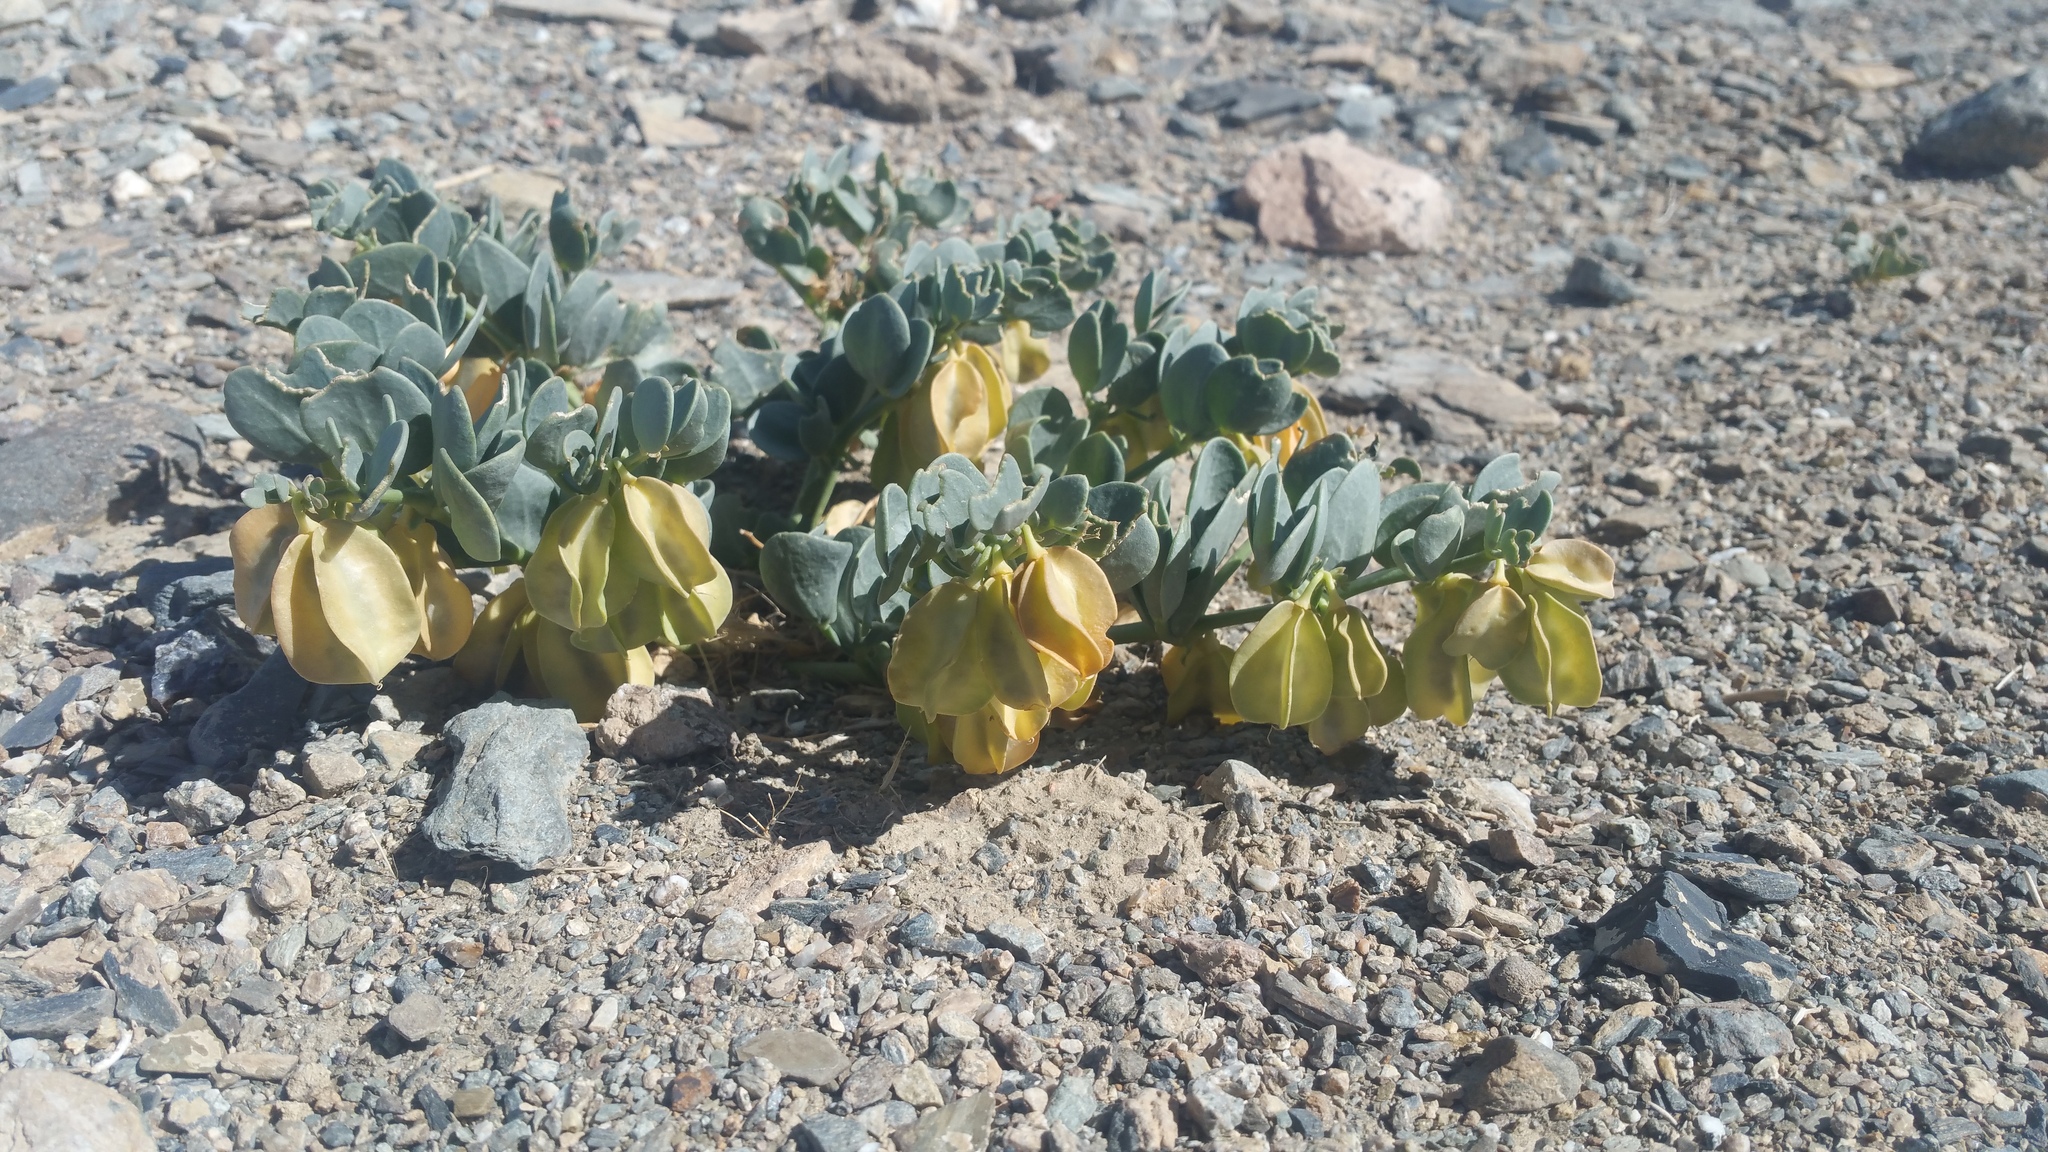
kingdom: Plantae
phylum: Tracheophyta
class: Magnoliopsida
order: Zygophyllales
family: Zygophyllaceae
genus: Zygophyllum
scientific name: Zygophyllum potaninii
